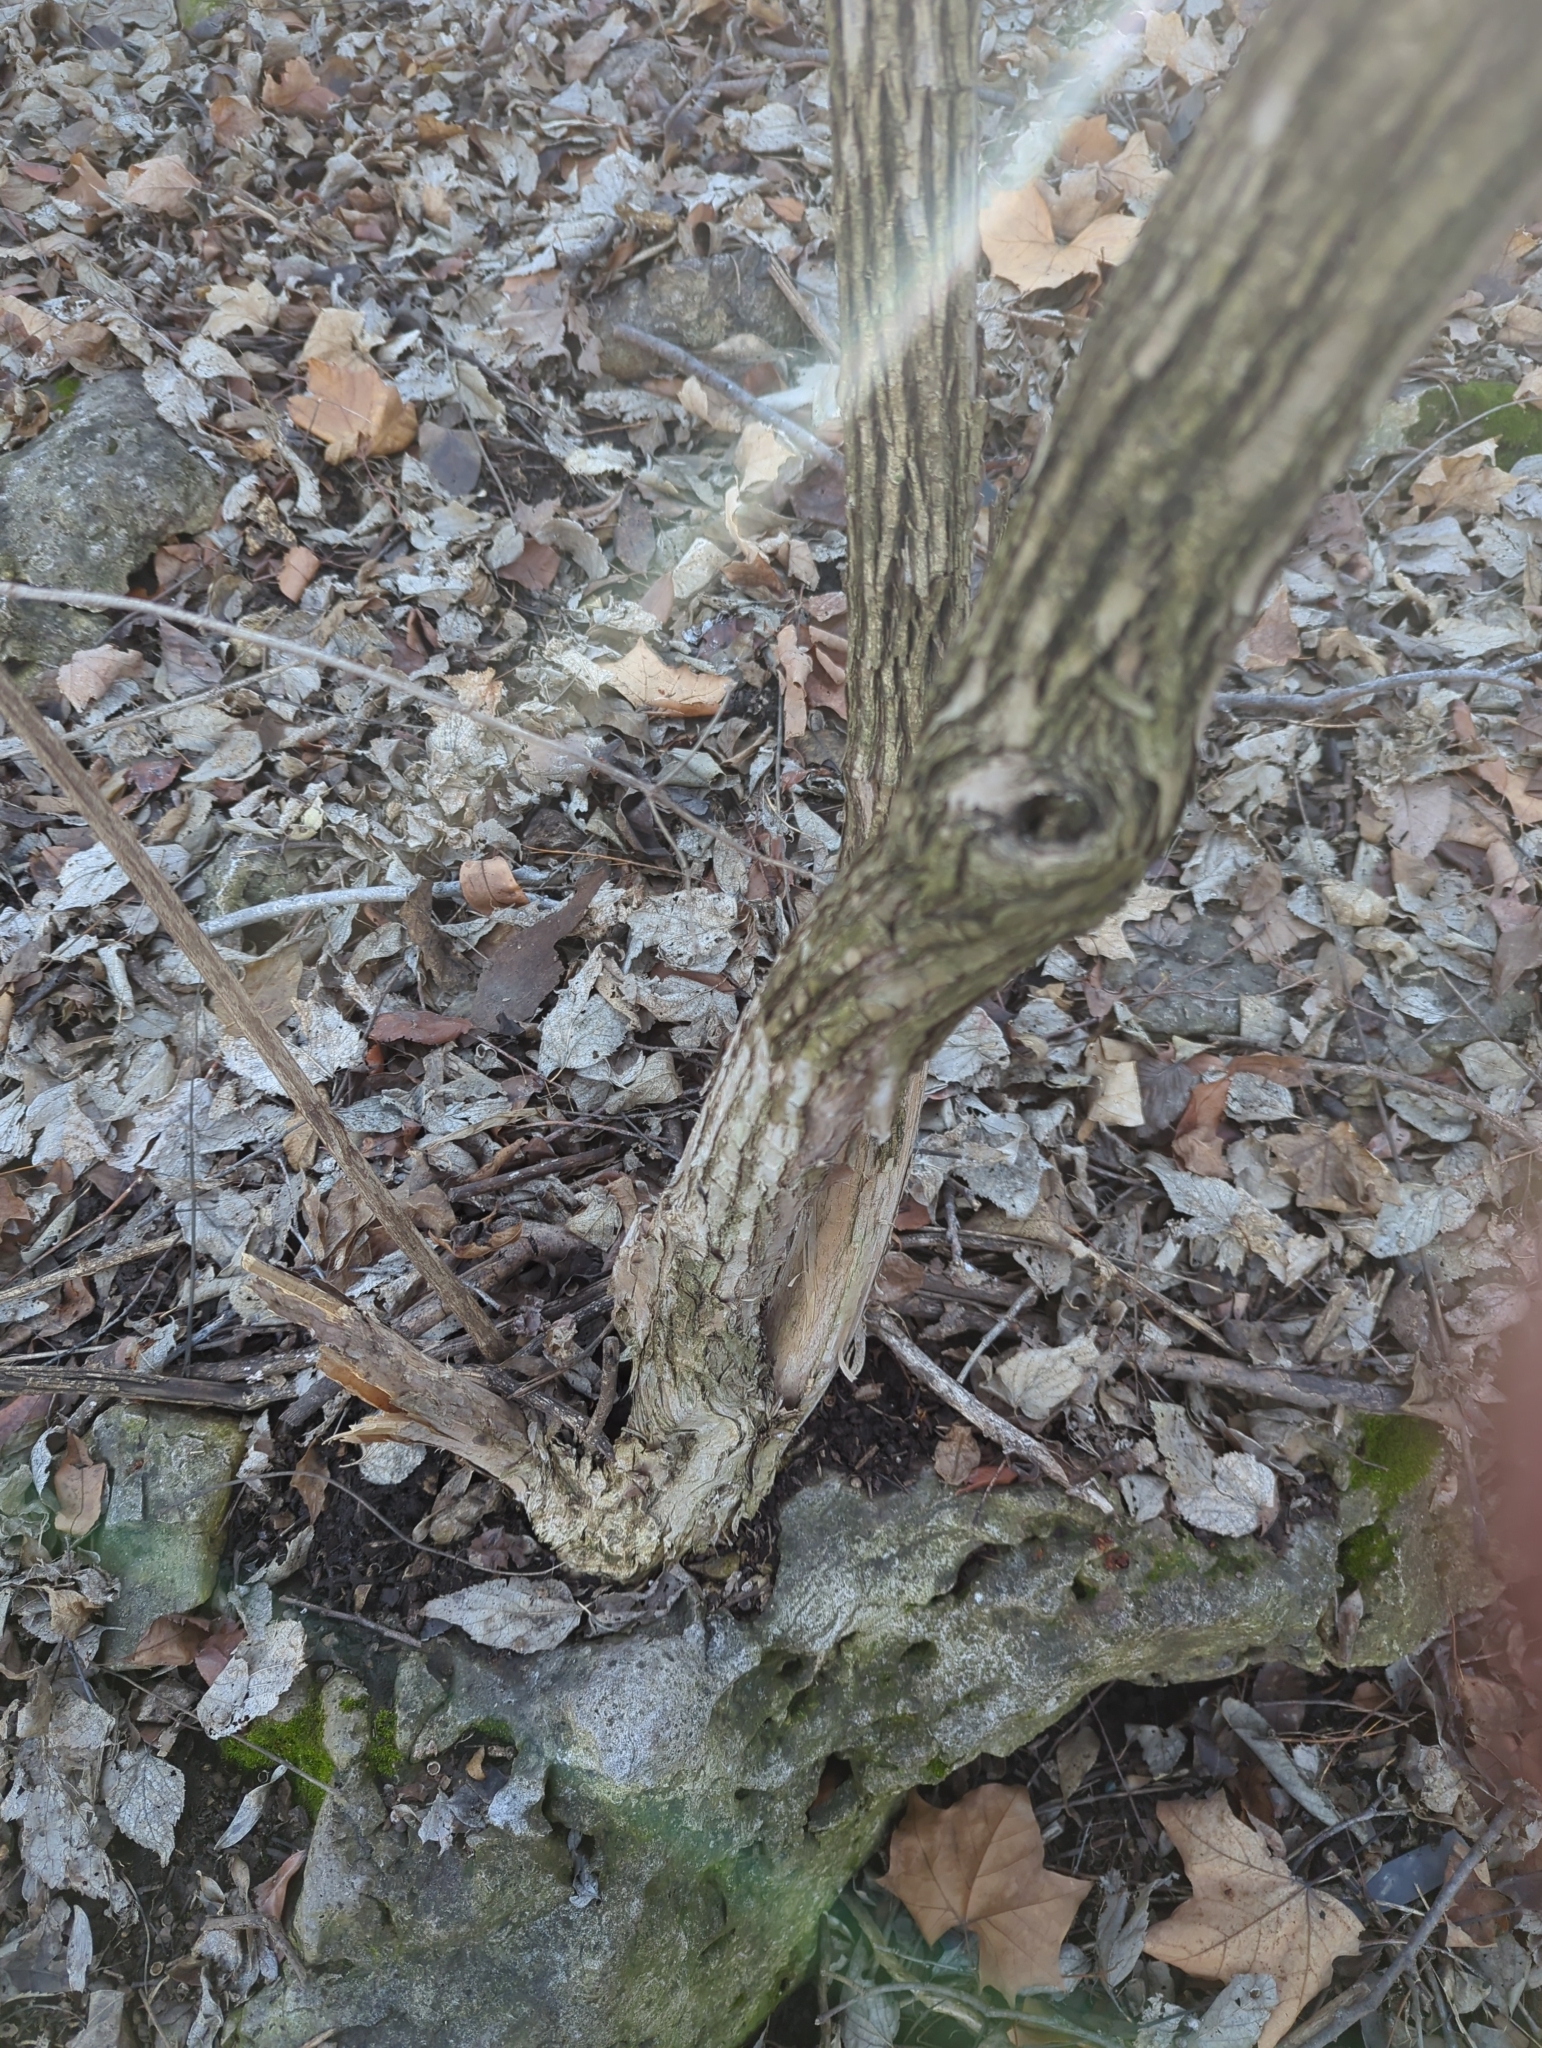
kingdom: Plantae
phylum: Tracheophyta
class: Magnoliopsida
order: Dipsacales
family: Caprifoliaceae
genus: Lonicera
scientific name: Lonicera maackii
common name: Amur honeysuckle
